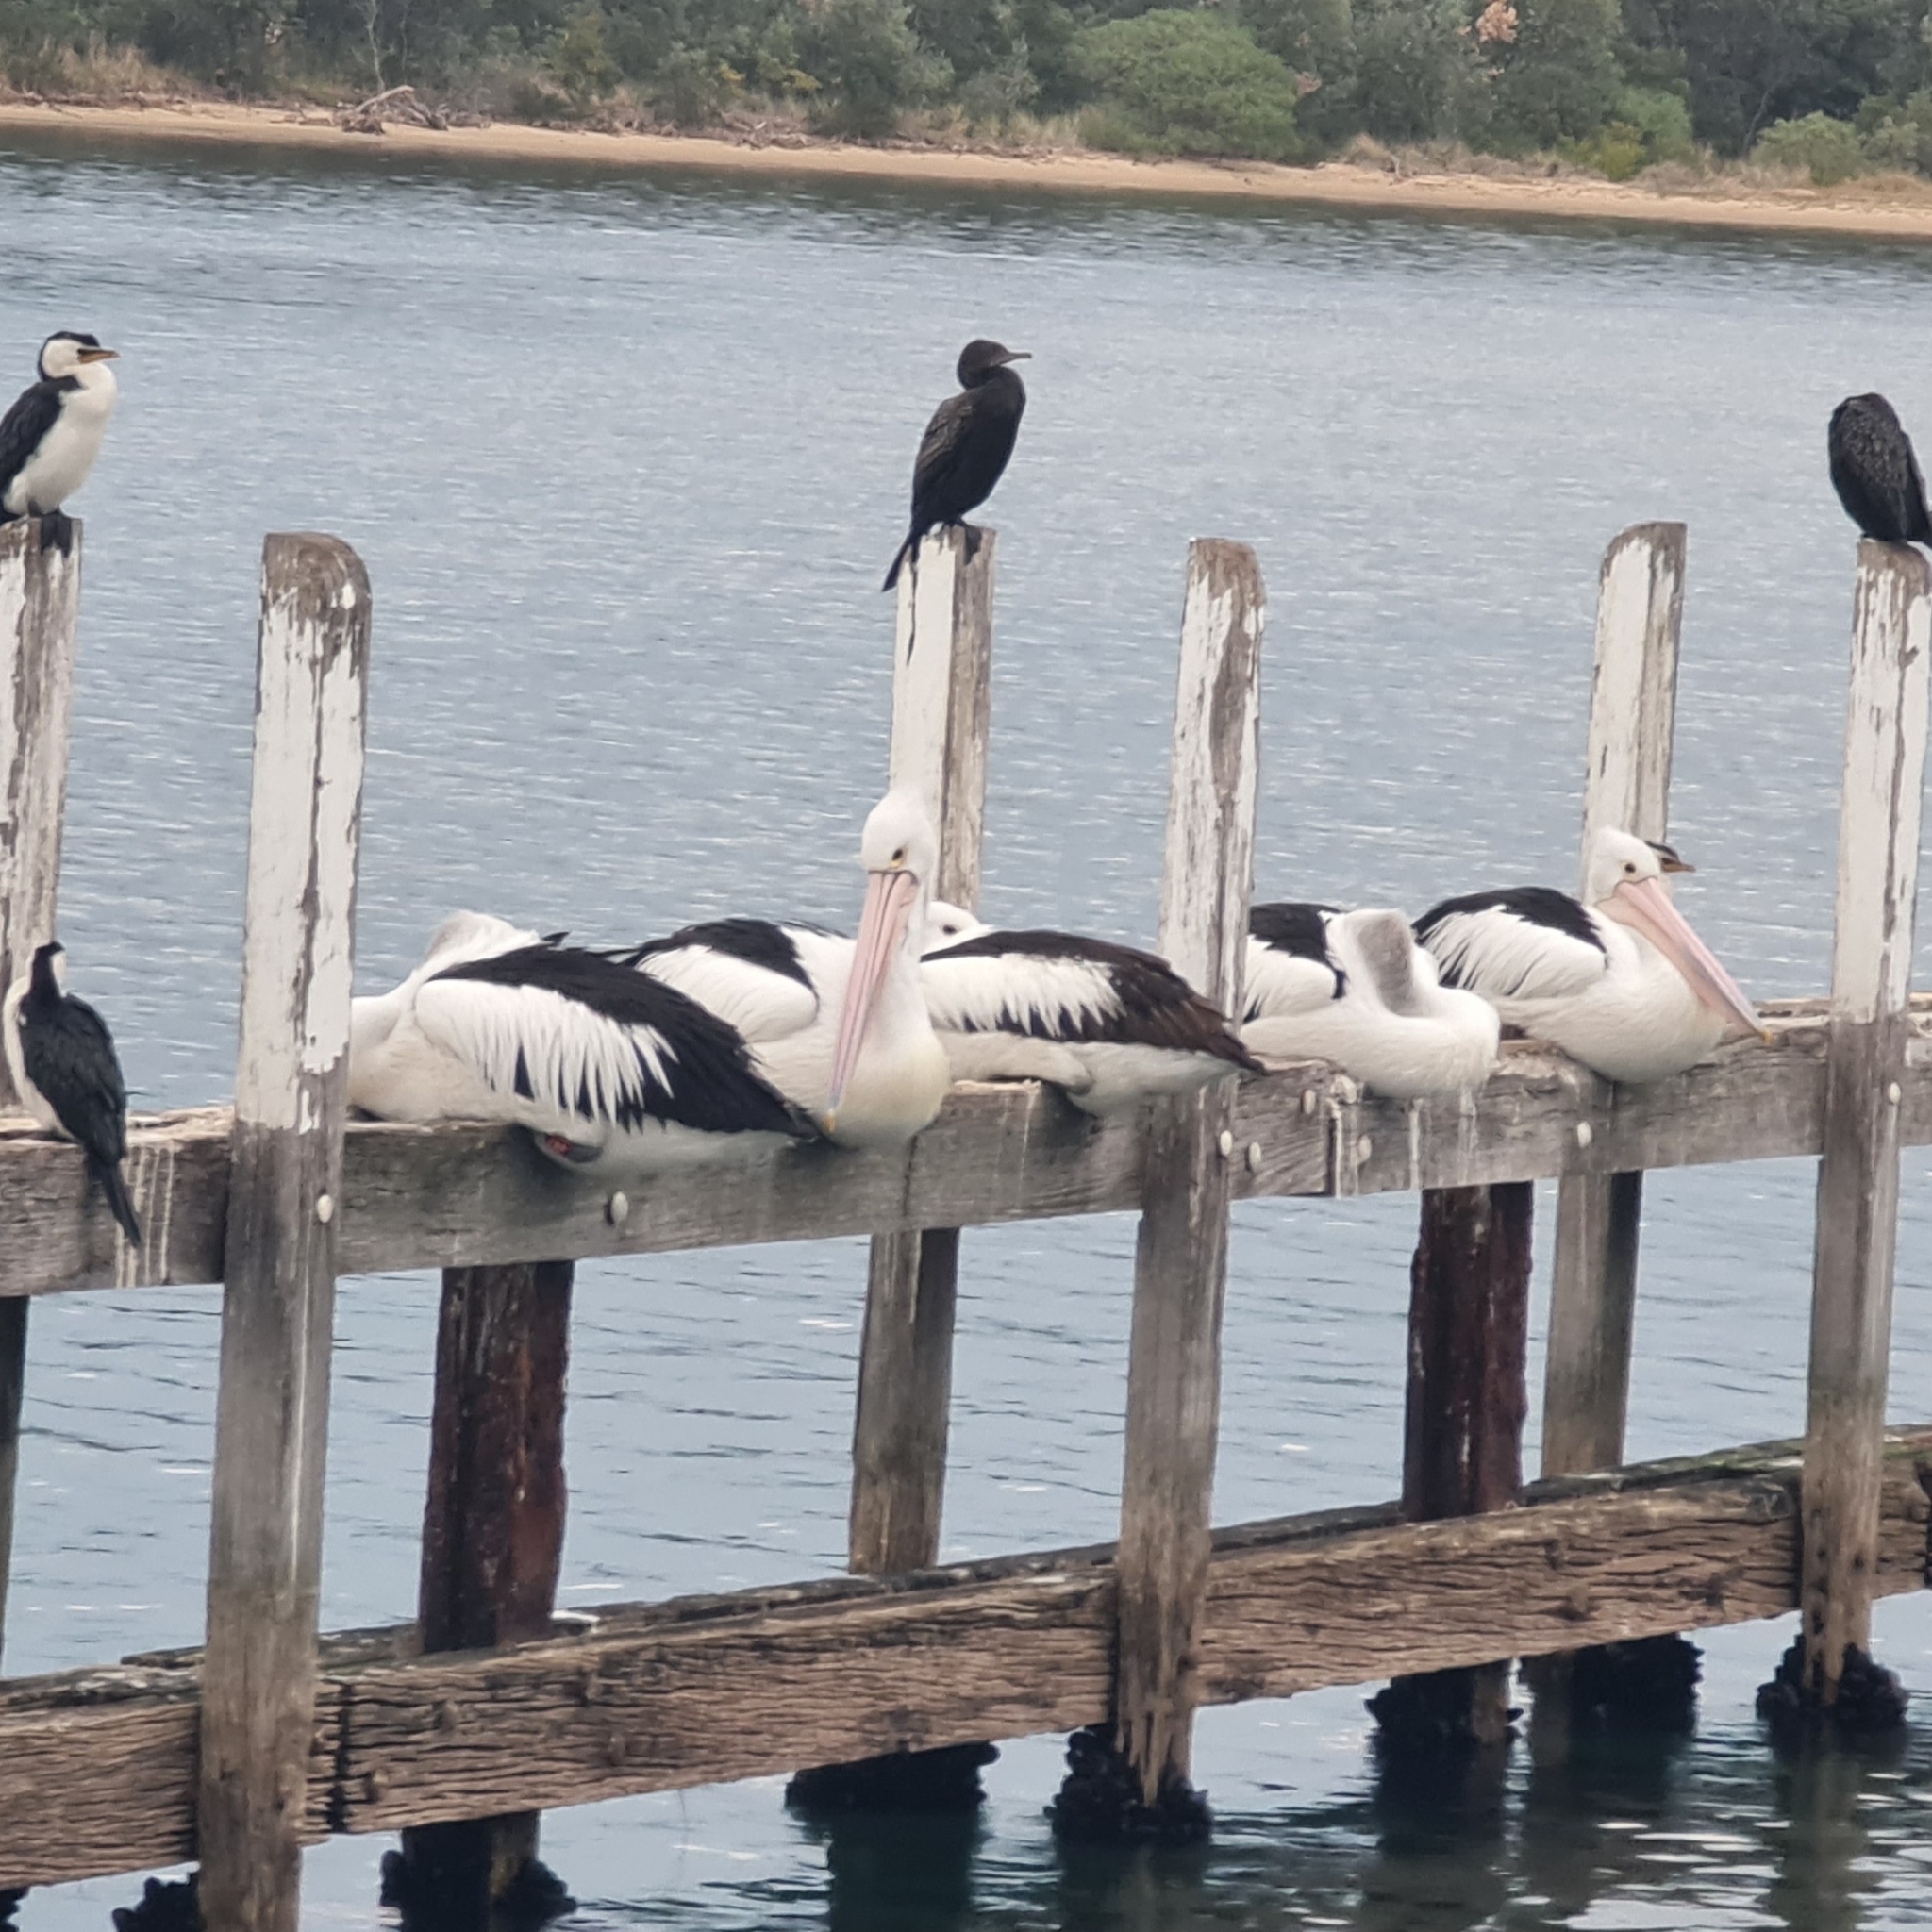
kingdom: Animalia
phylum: Chordata
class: Aves
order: Pelecaniformes
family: Pelecanidae
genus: Pelecanus
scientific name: Pelecanus conspicillatus
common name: Australian pelican
